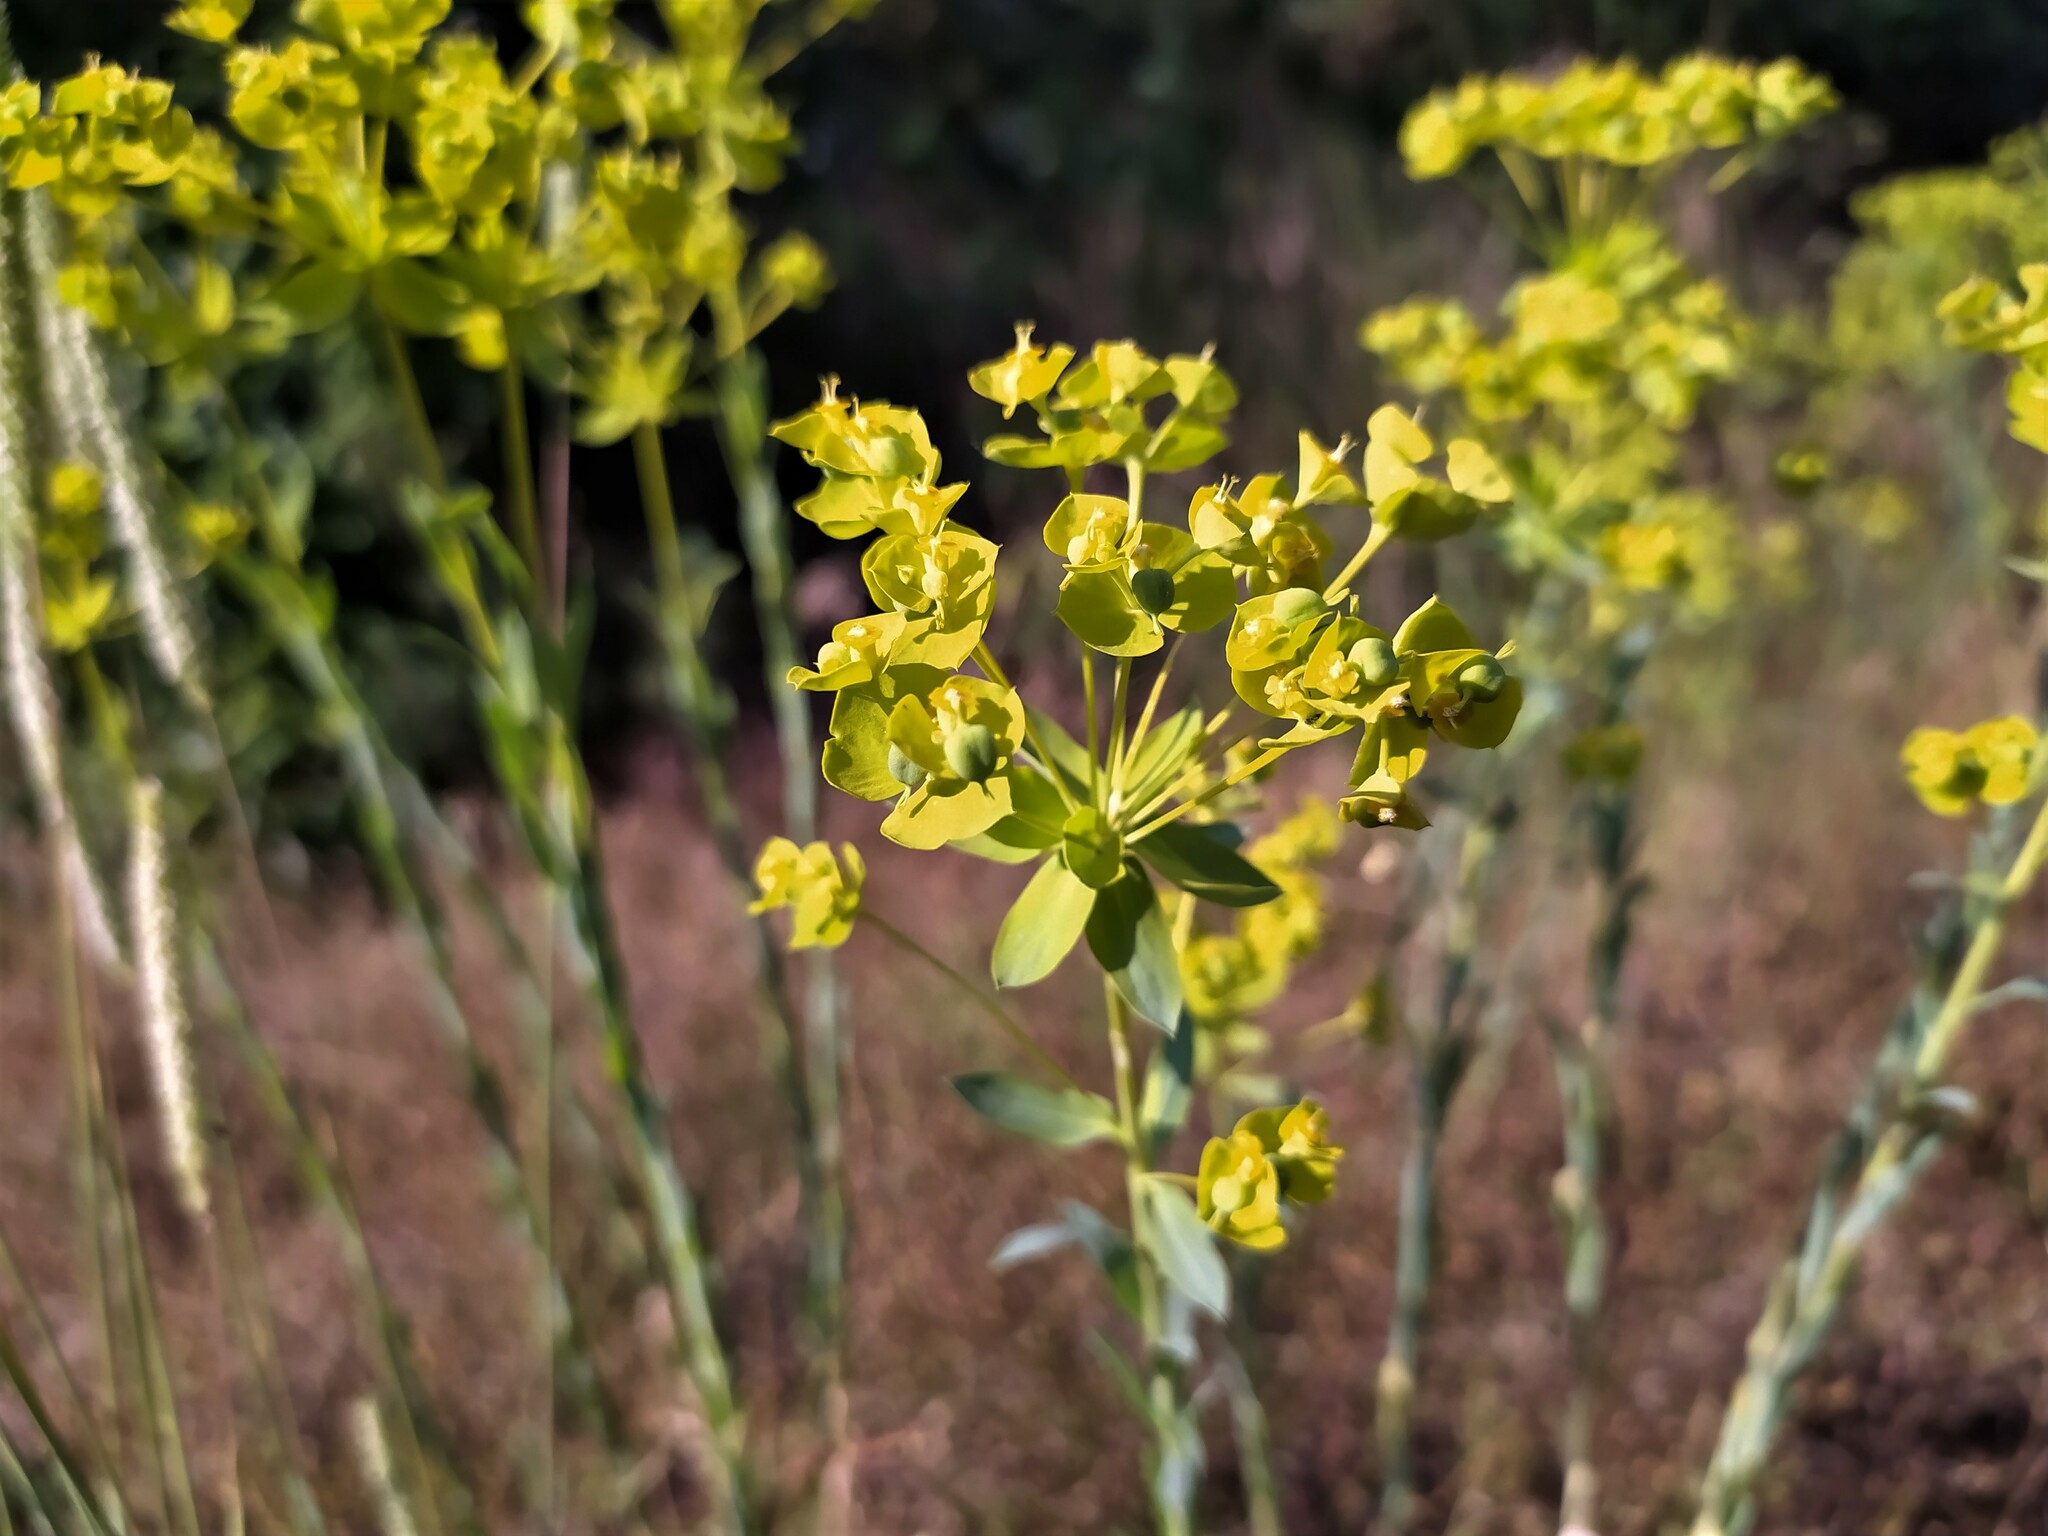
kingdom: Plantae
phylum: Tracheophyta
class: Magnoliopsida
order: Malpighiales
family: Euphorbiaceae
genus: Euphorbia
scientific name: Euphorbia seguieriana
